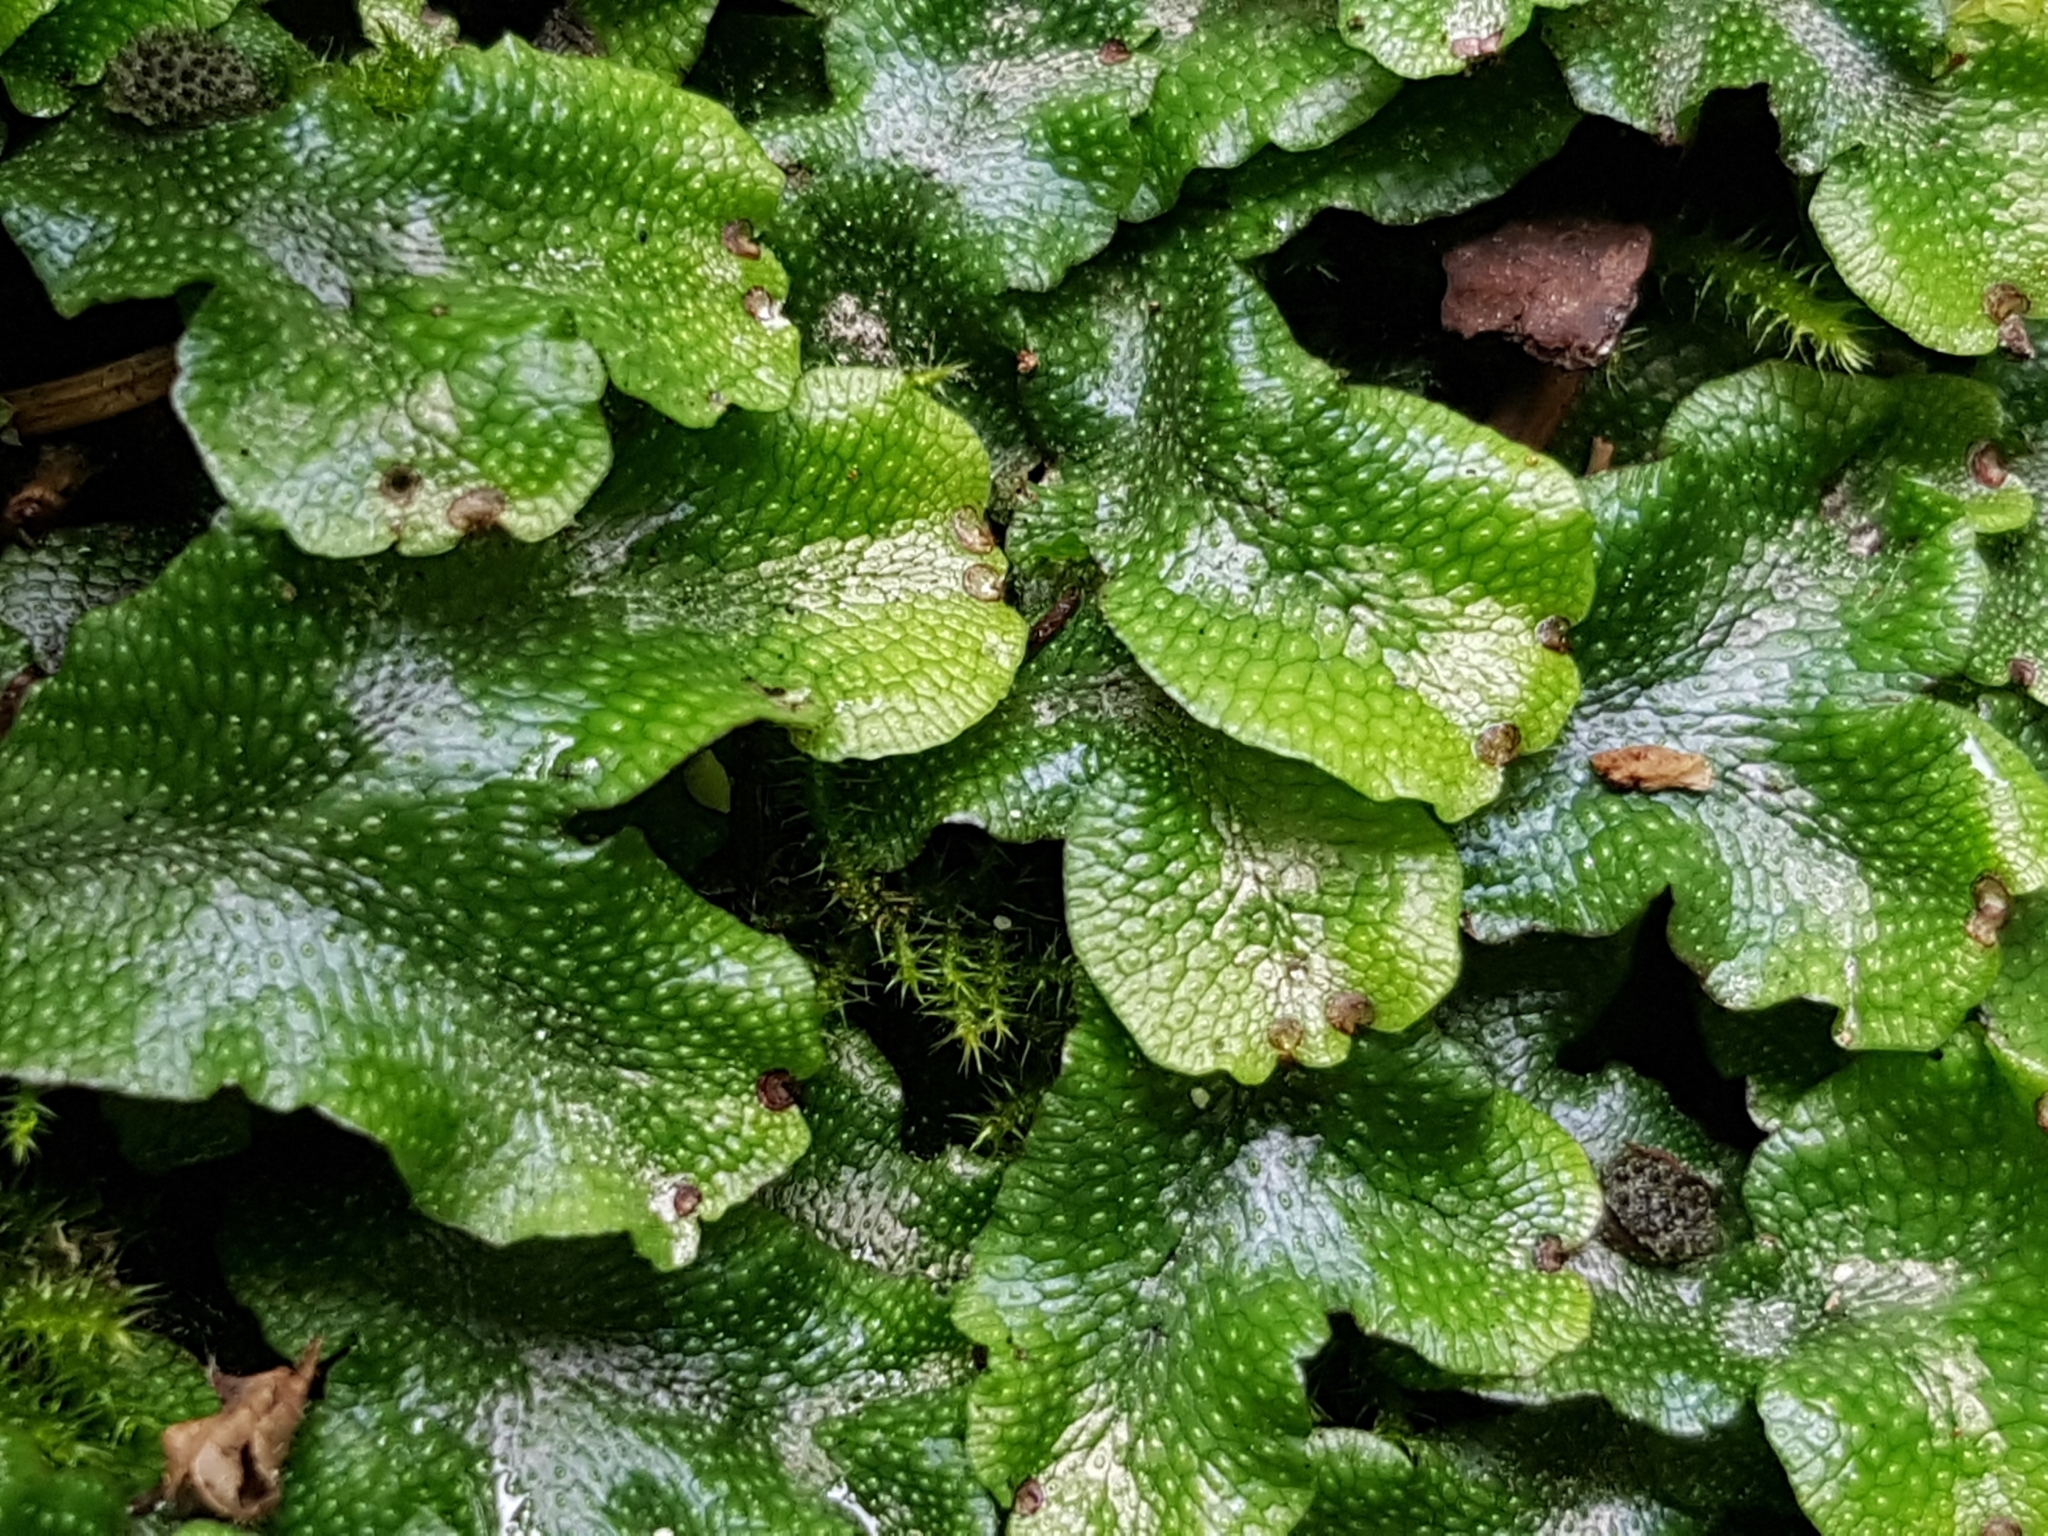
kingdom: Plantae
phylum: Marchantiophyta
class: Marchantiopsida
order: Marchantiales
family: Conocephalaceae
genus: Conocephalum
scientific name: Conocephalum conicum
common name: Great scented liverwort
